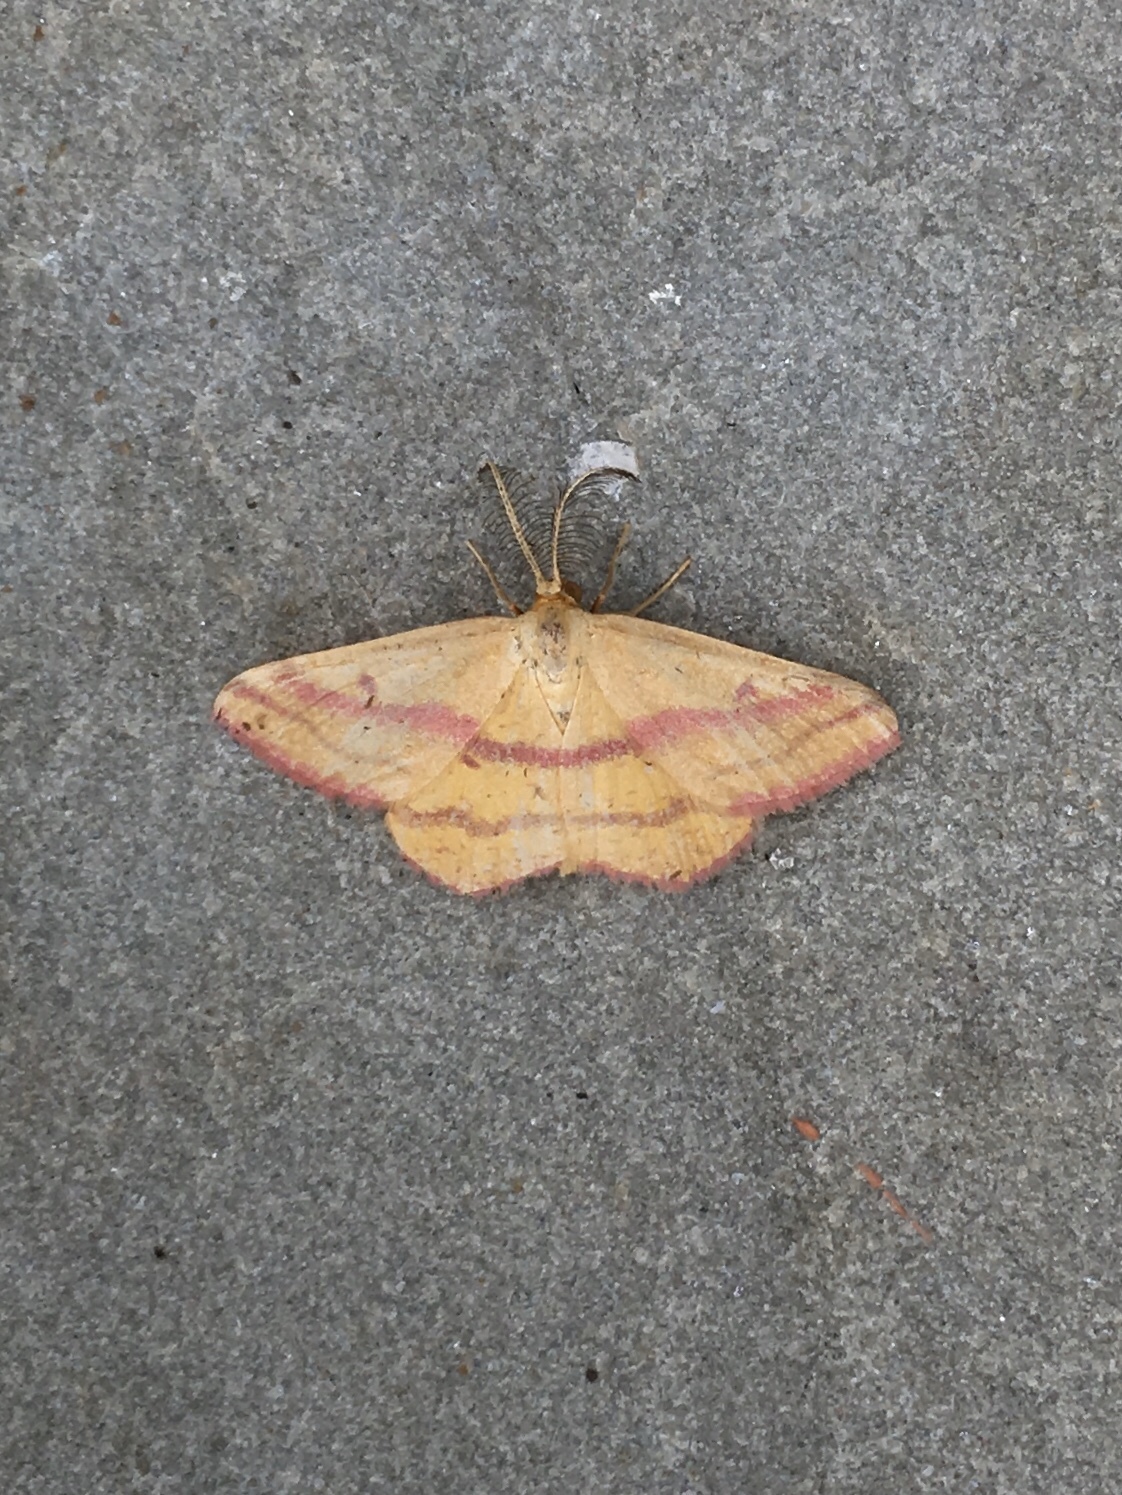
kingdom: Animalia
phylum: Arthropoda
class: Insecta
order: Lepidoptera
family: Geometridae
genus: Haematopis
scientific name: Haematopis grataria
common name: Chickweed geometer
